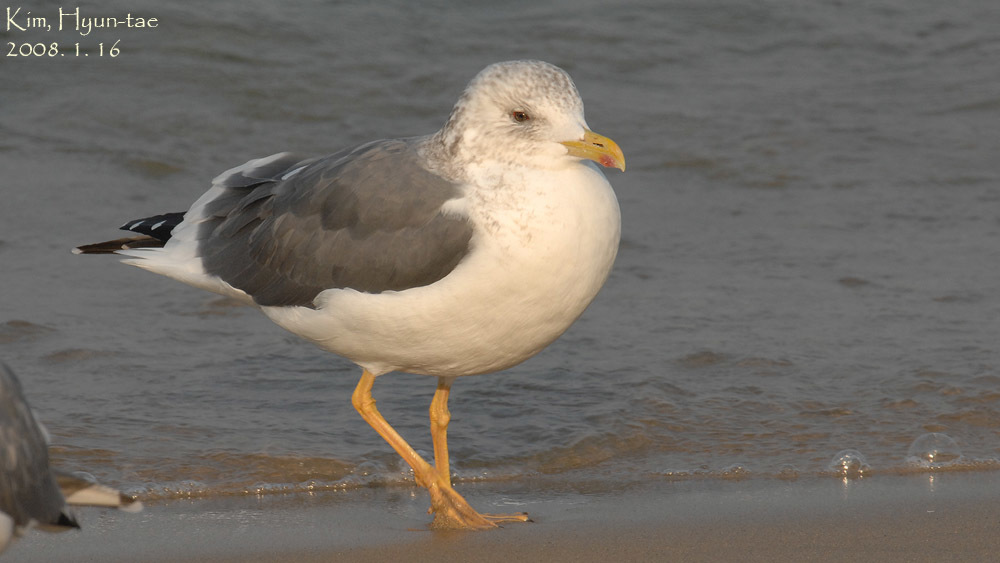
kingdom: Animalia
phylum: Chordata
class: Aves
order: Charadriiformes
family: Laridae
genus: Larus
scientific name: Larus fuscus
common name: Lesser black-backed gull
